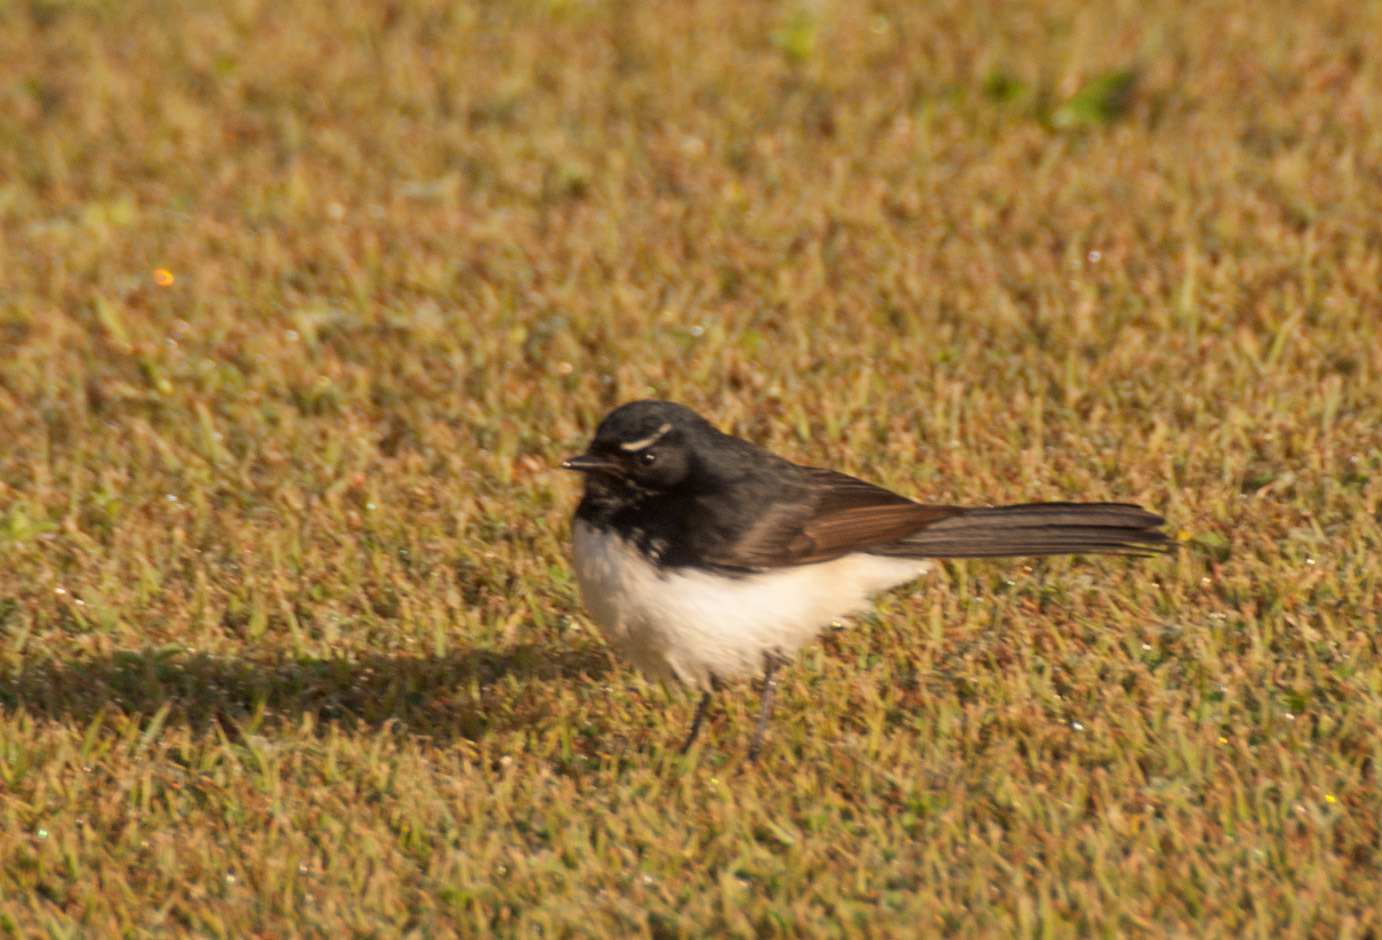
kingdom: Animalia
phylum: Chordata
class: Aves
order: Passeriformes
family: Rhipiduridae
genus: Rhipidura
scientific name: Rhipidura leucophrys
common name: Willie wagtail
